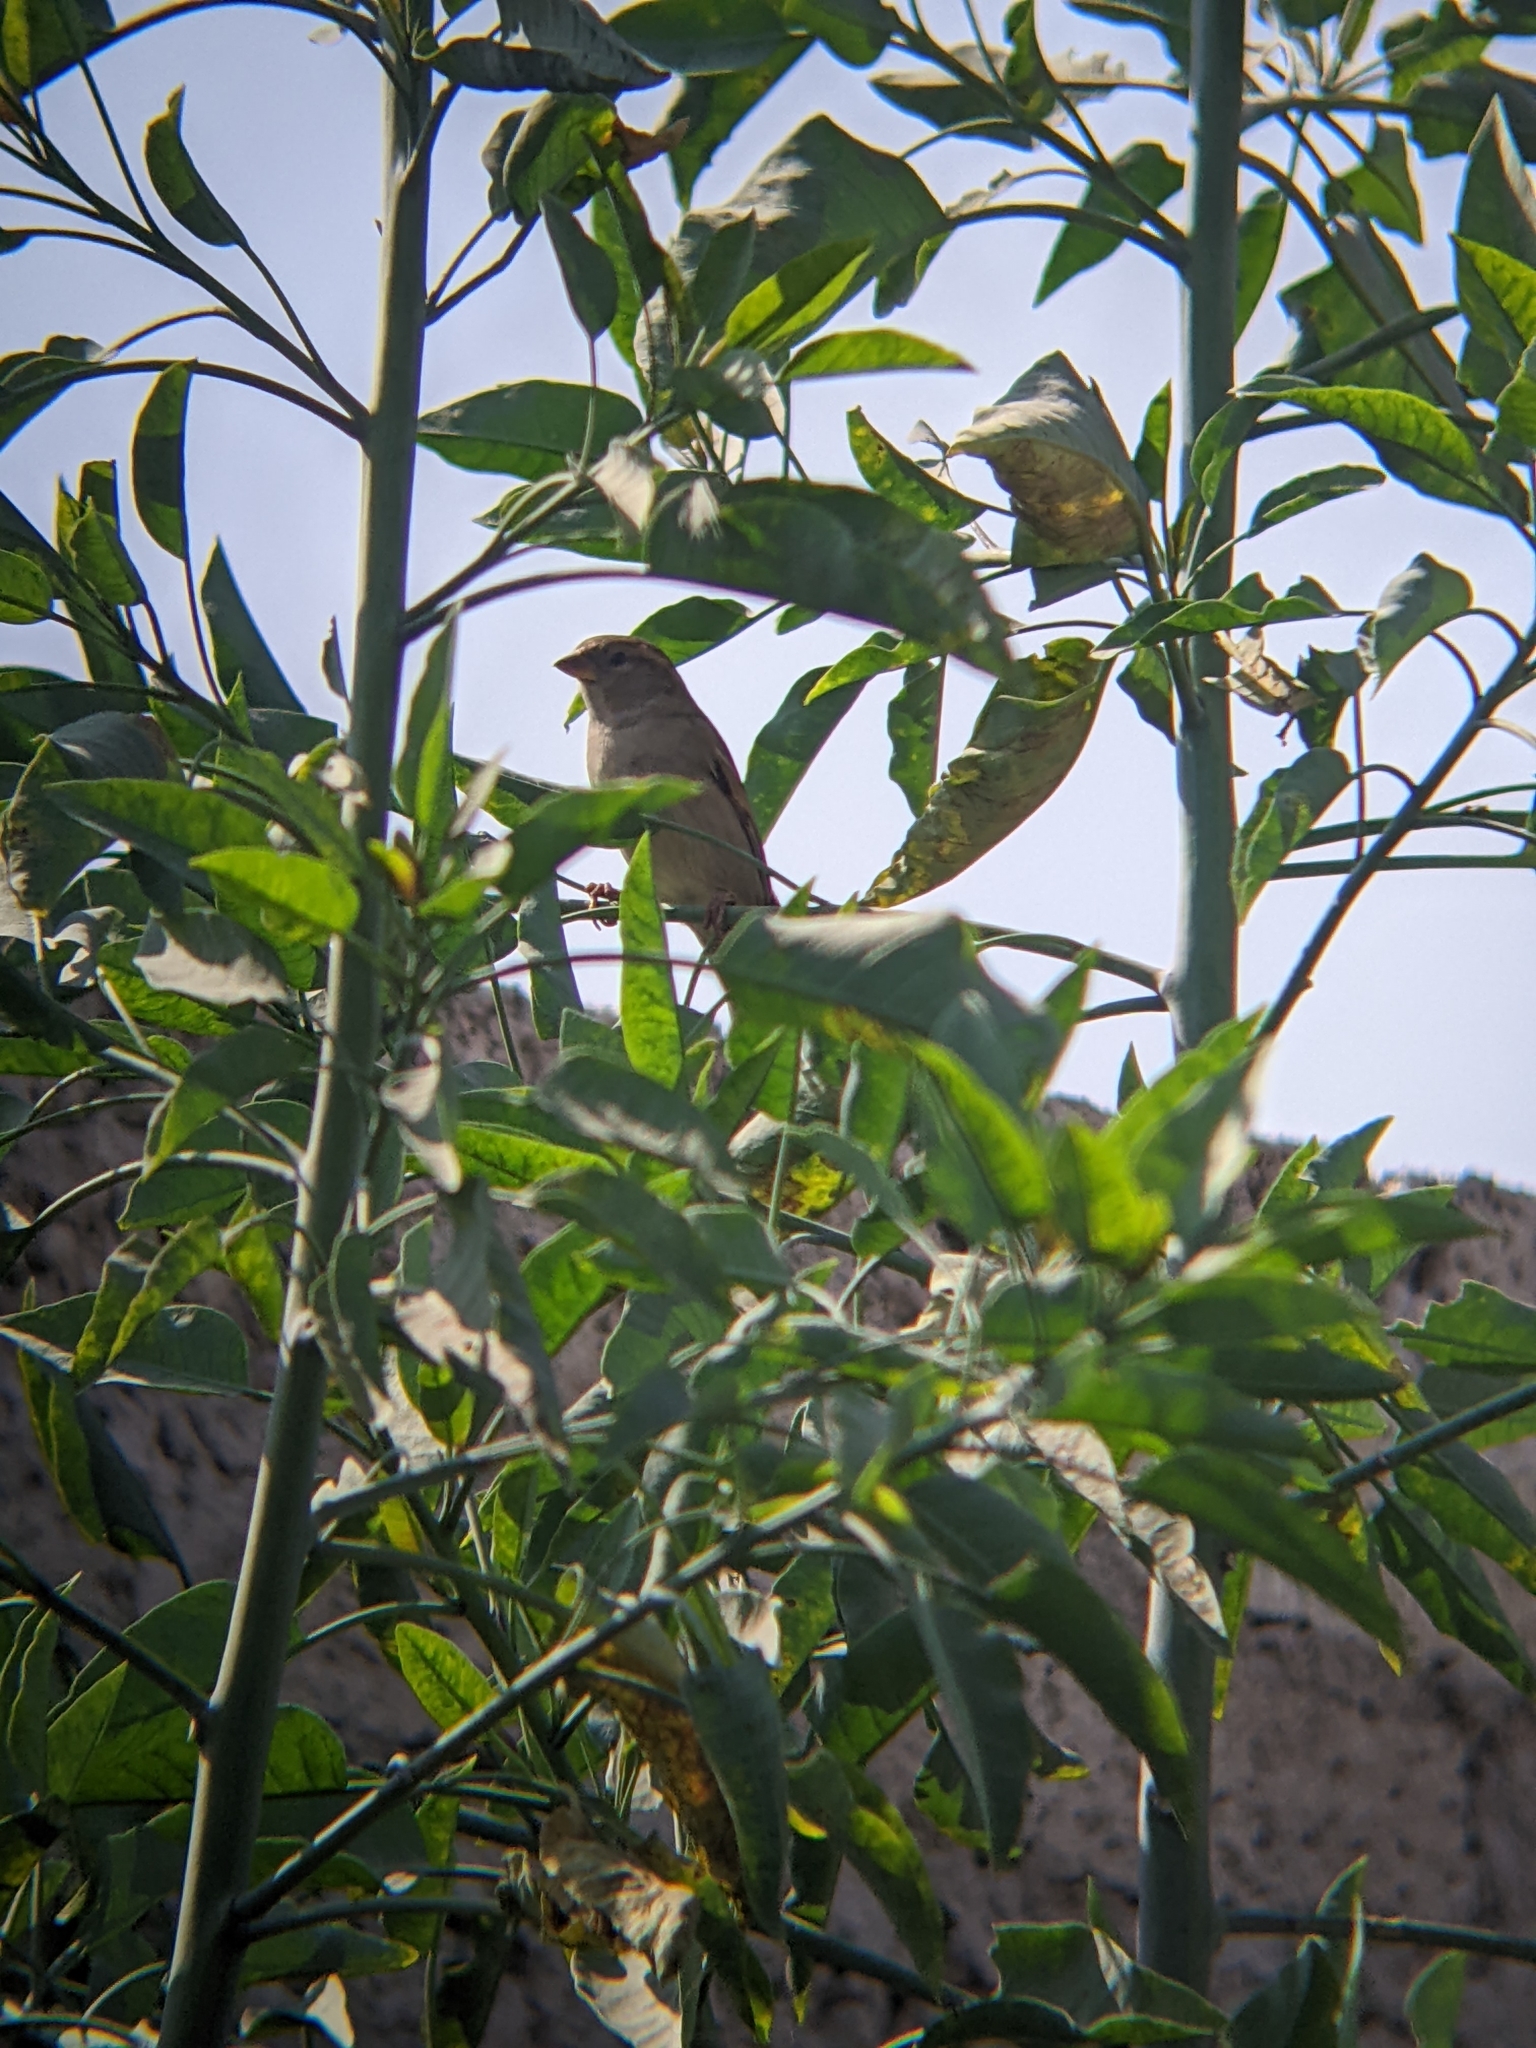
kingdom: Animalia
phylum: Chordata
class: Aves
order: Passeriformes
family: Passeridae
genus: Passer
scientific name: Passer domesticus
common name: House sparrow
